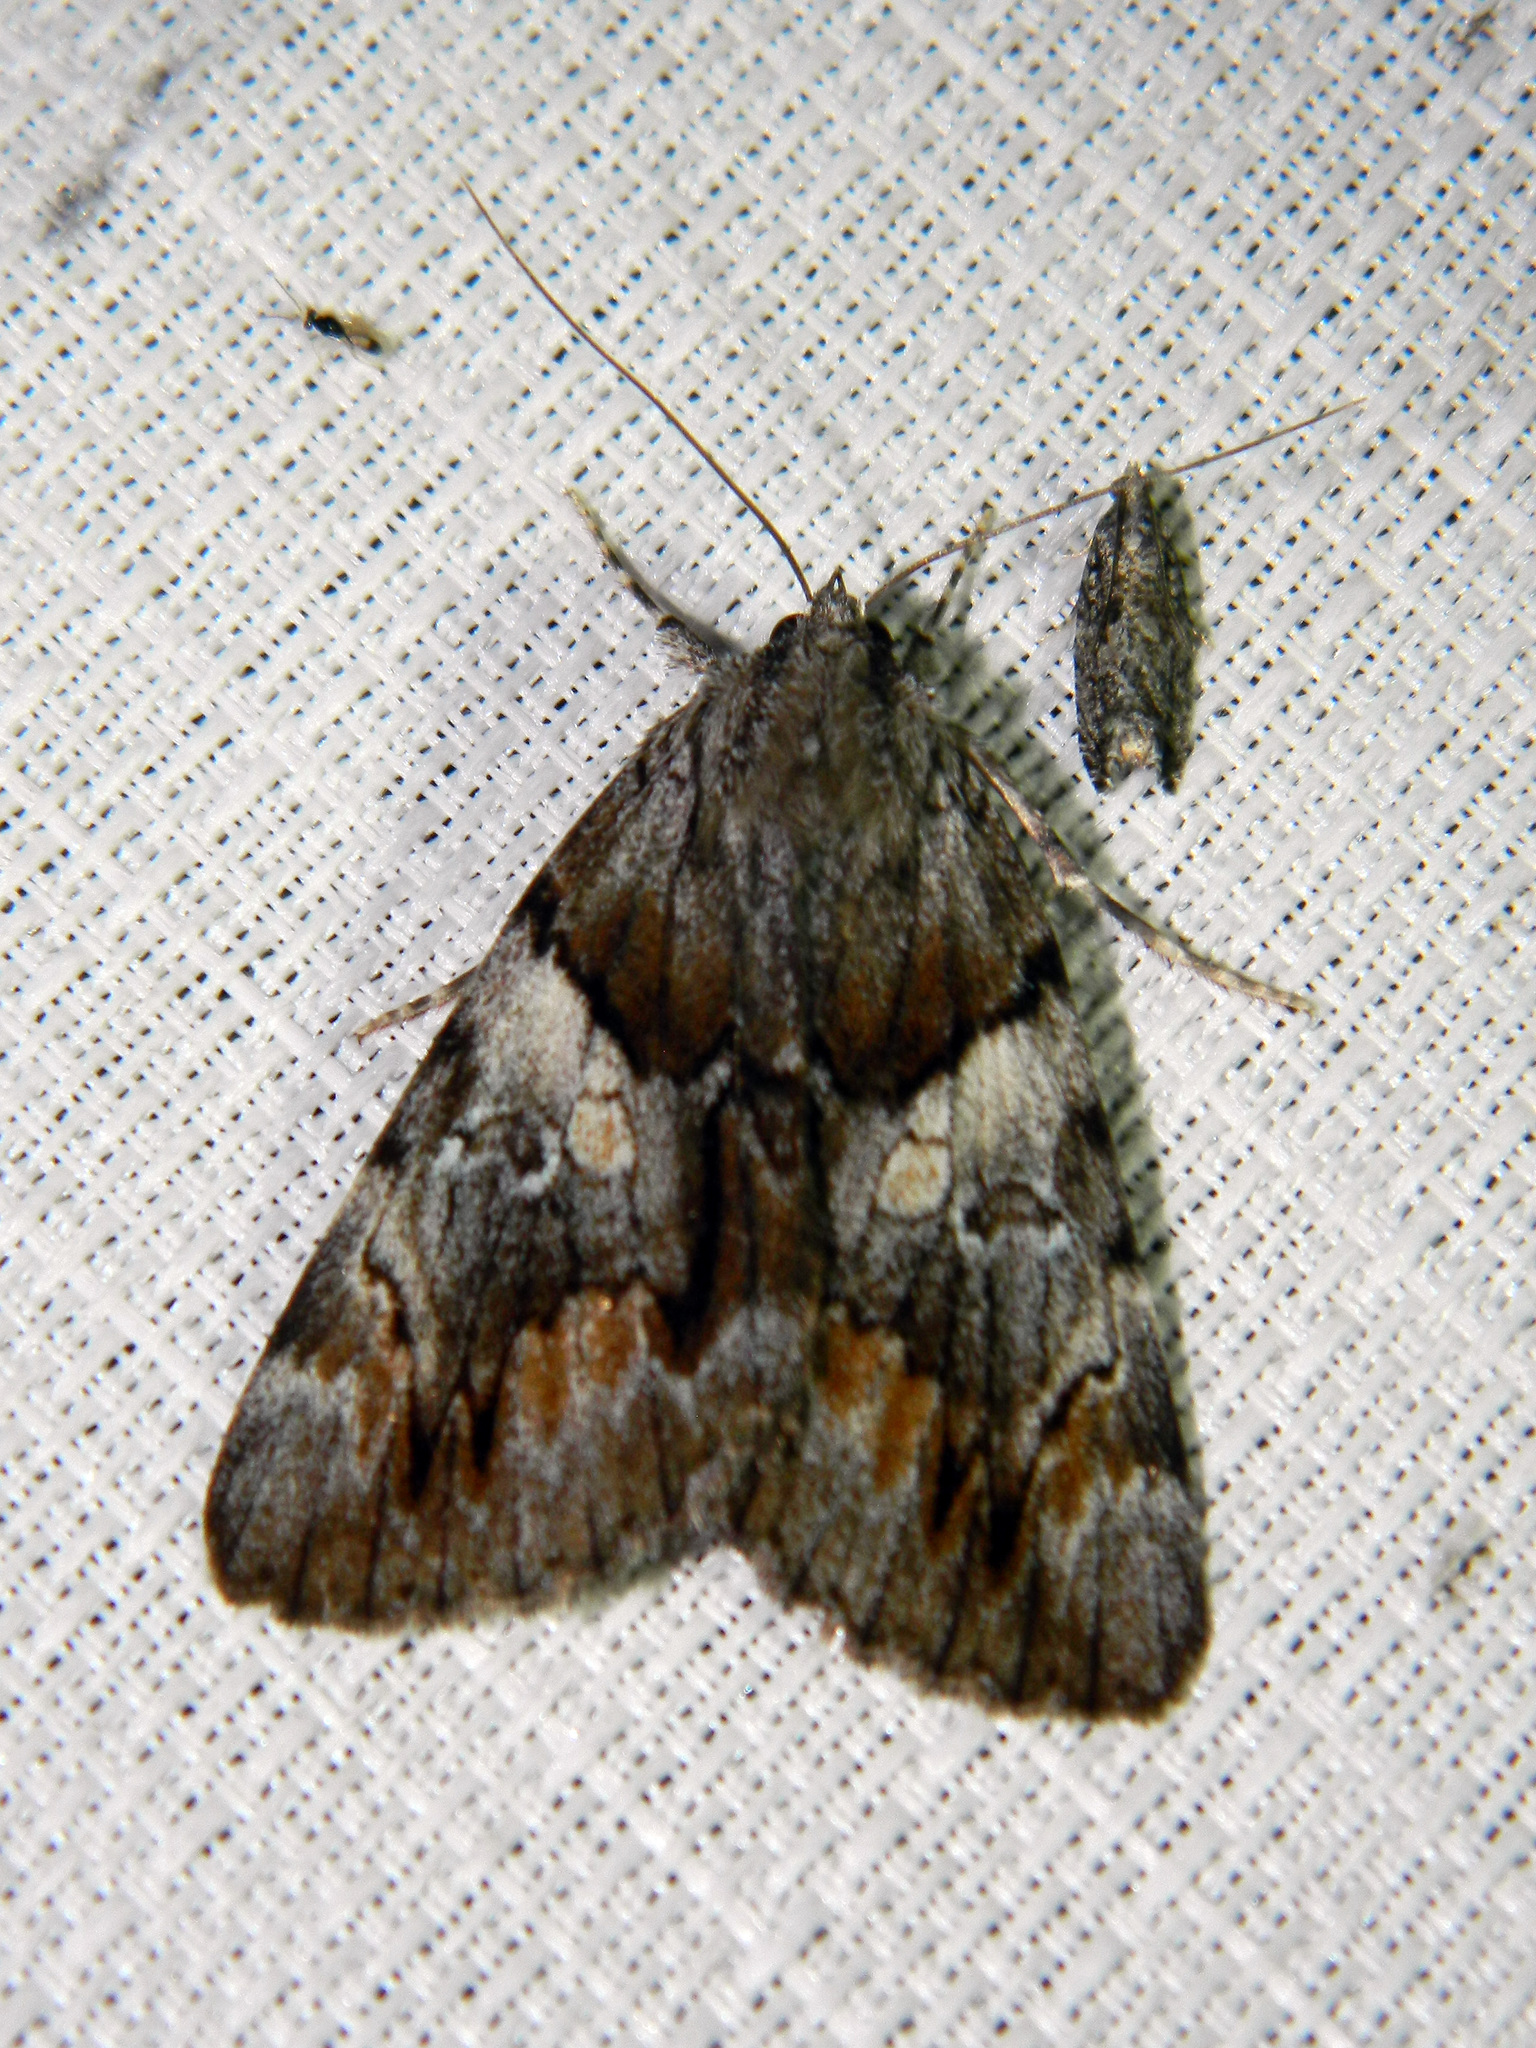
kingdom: Animalia
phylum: Arthropoda
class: Insecta
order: Lepidoptera
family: Erebidae
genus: Catocala
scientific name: Catocala blandula
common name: Charming underwing
